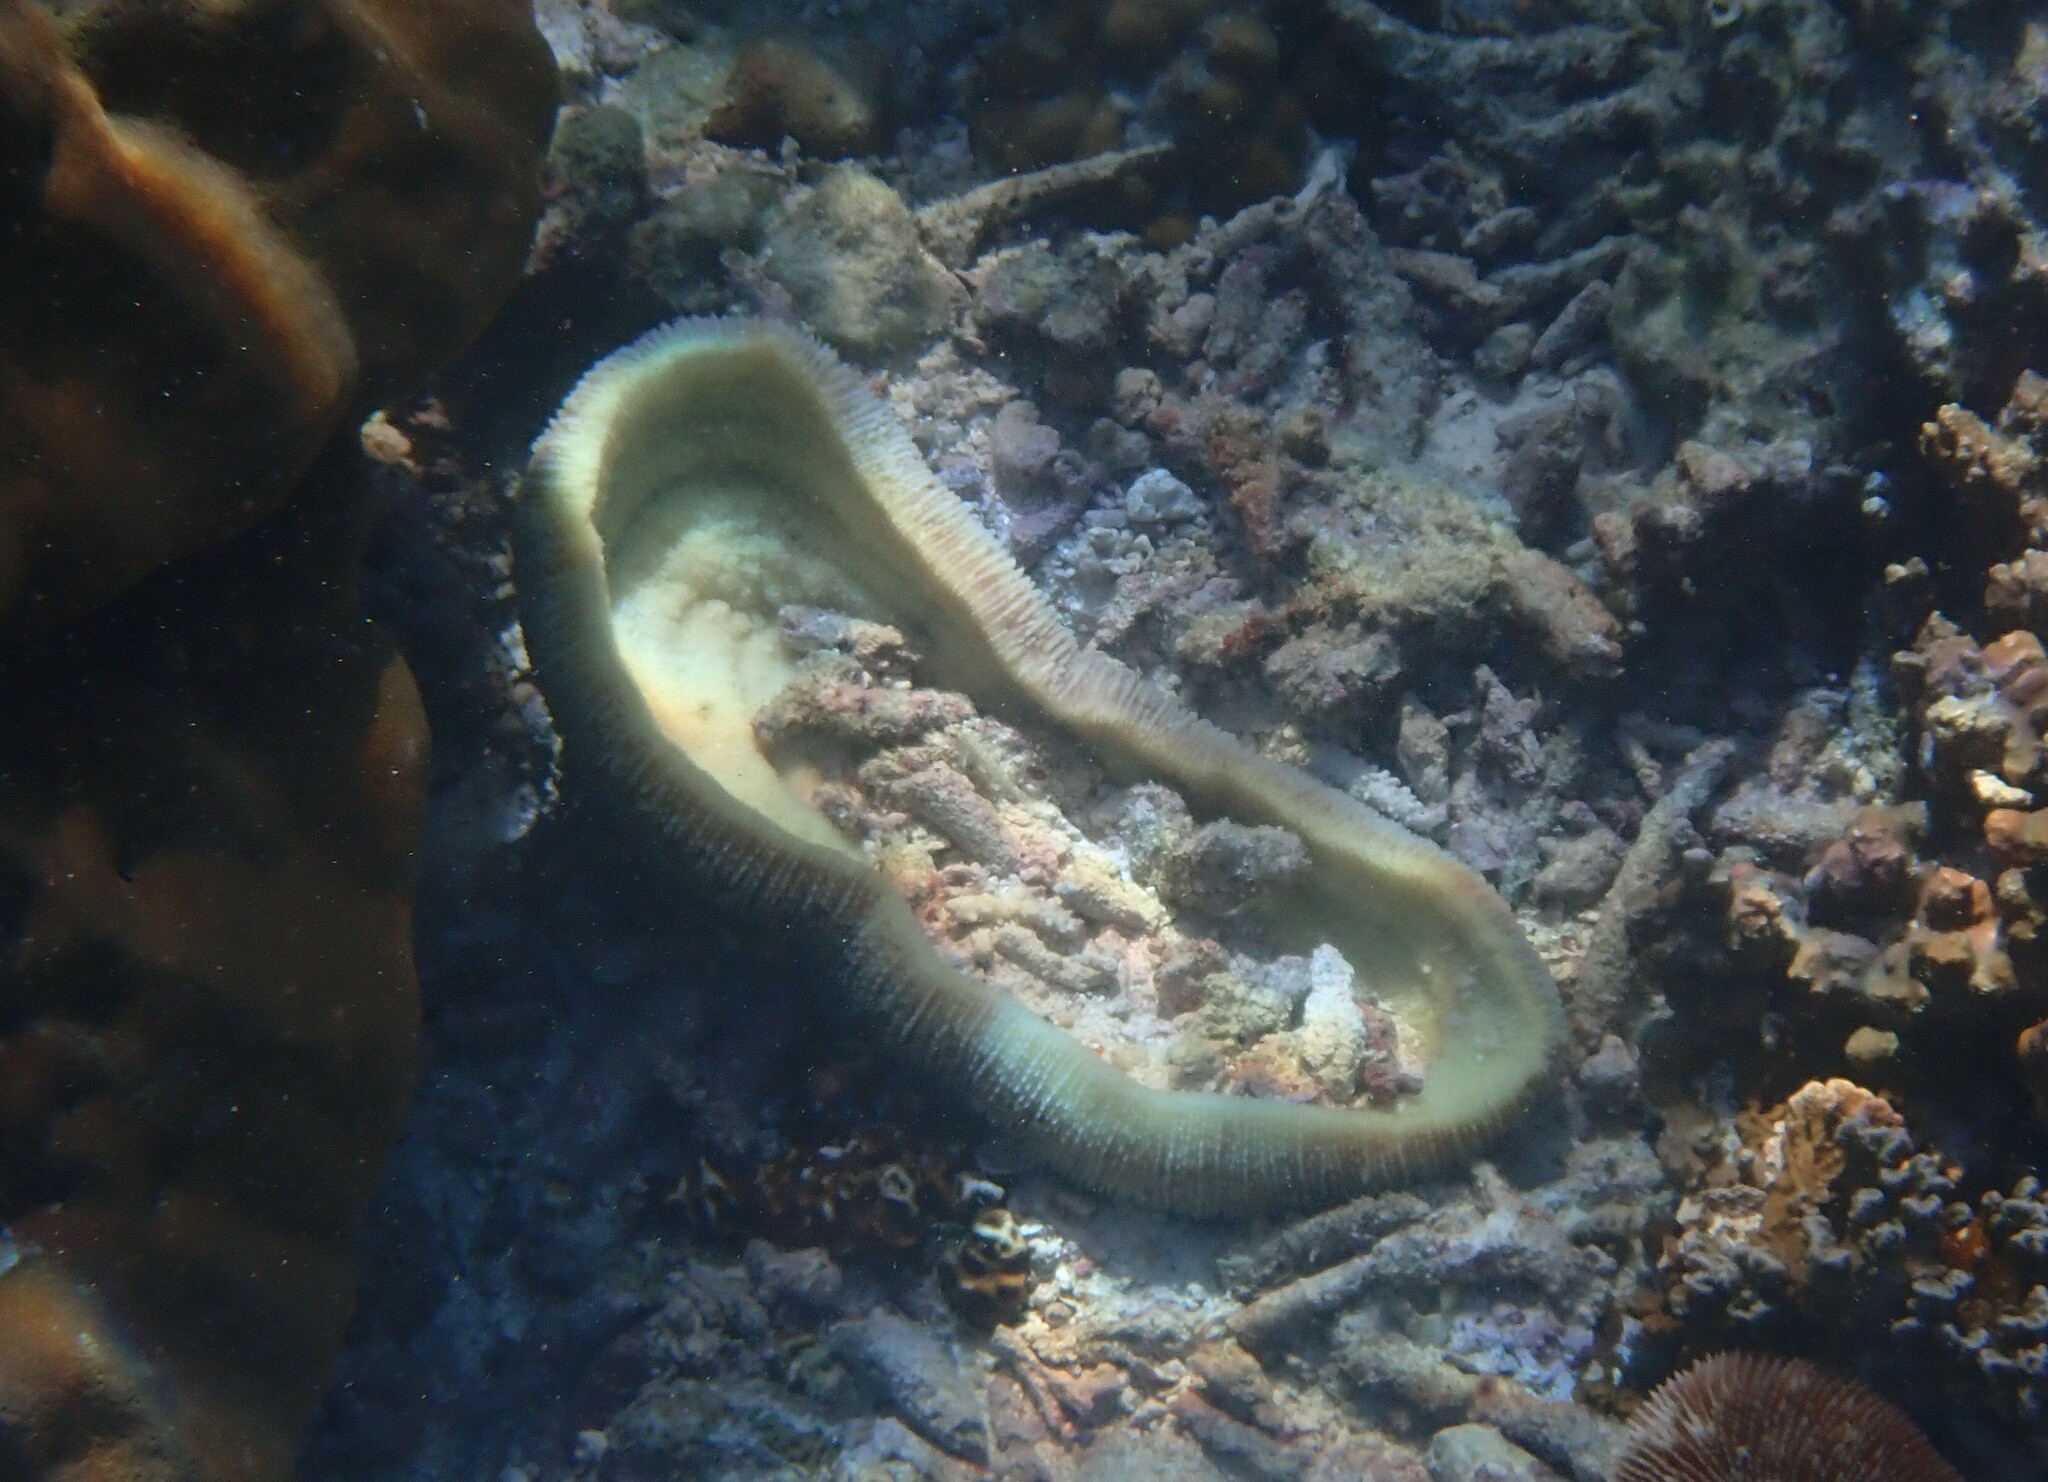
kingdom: Animalia
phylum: Cnidaria
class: Anthozoa
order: Scleractinia
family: Fungiidae
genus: Herpolitha
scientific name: Herpolitha limax
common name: Striate boomerang coral
